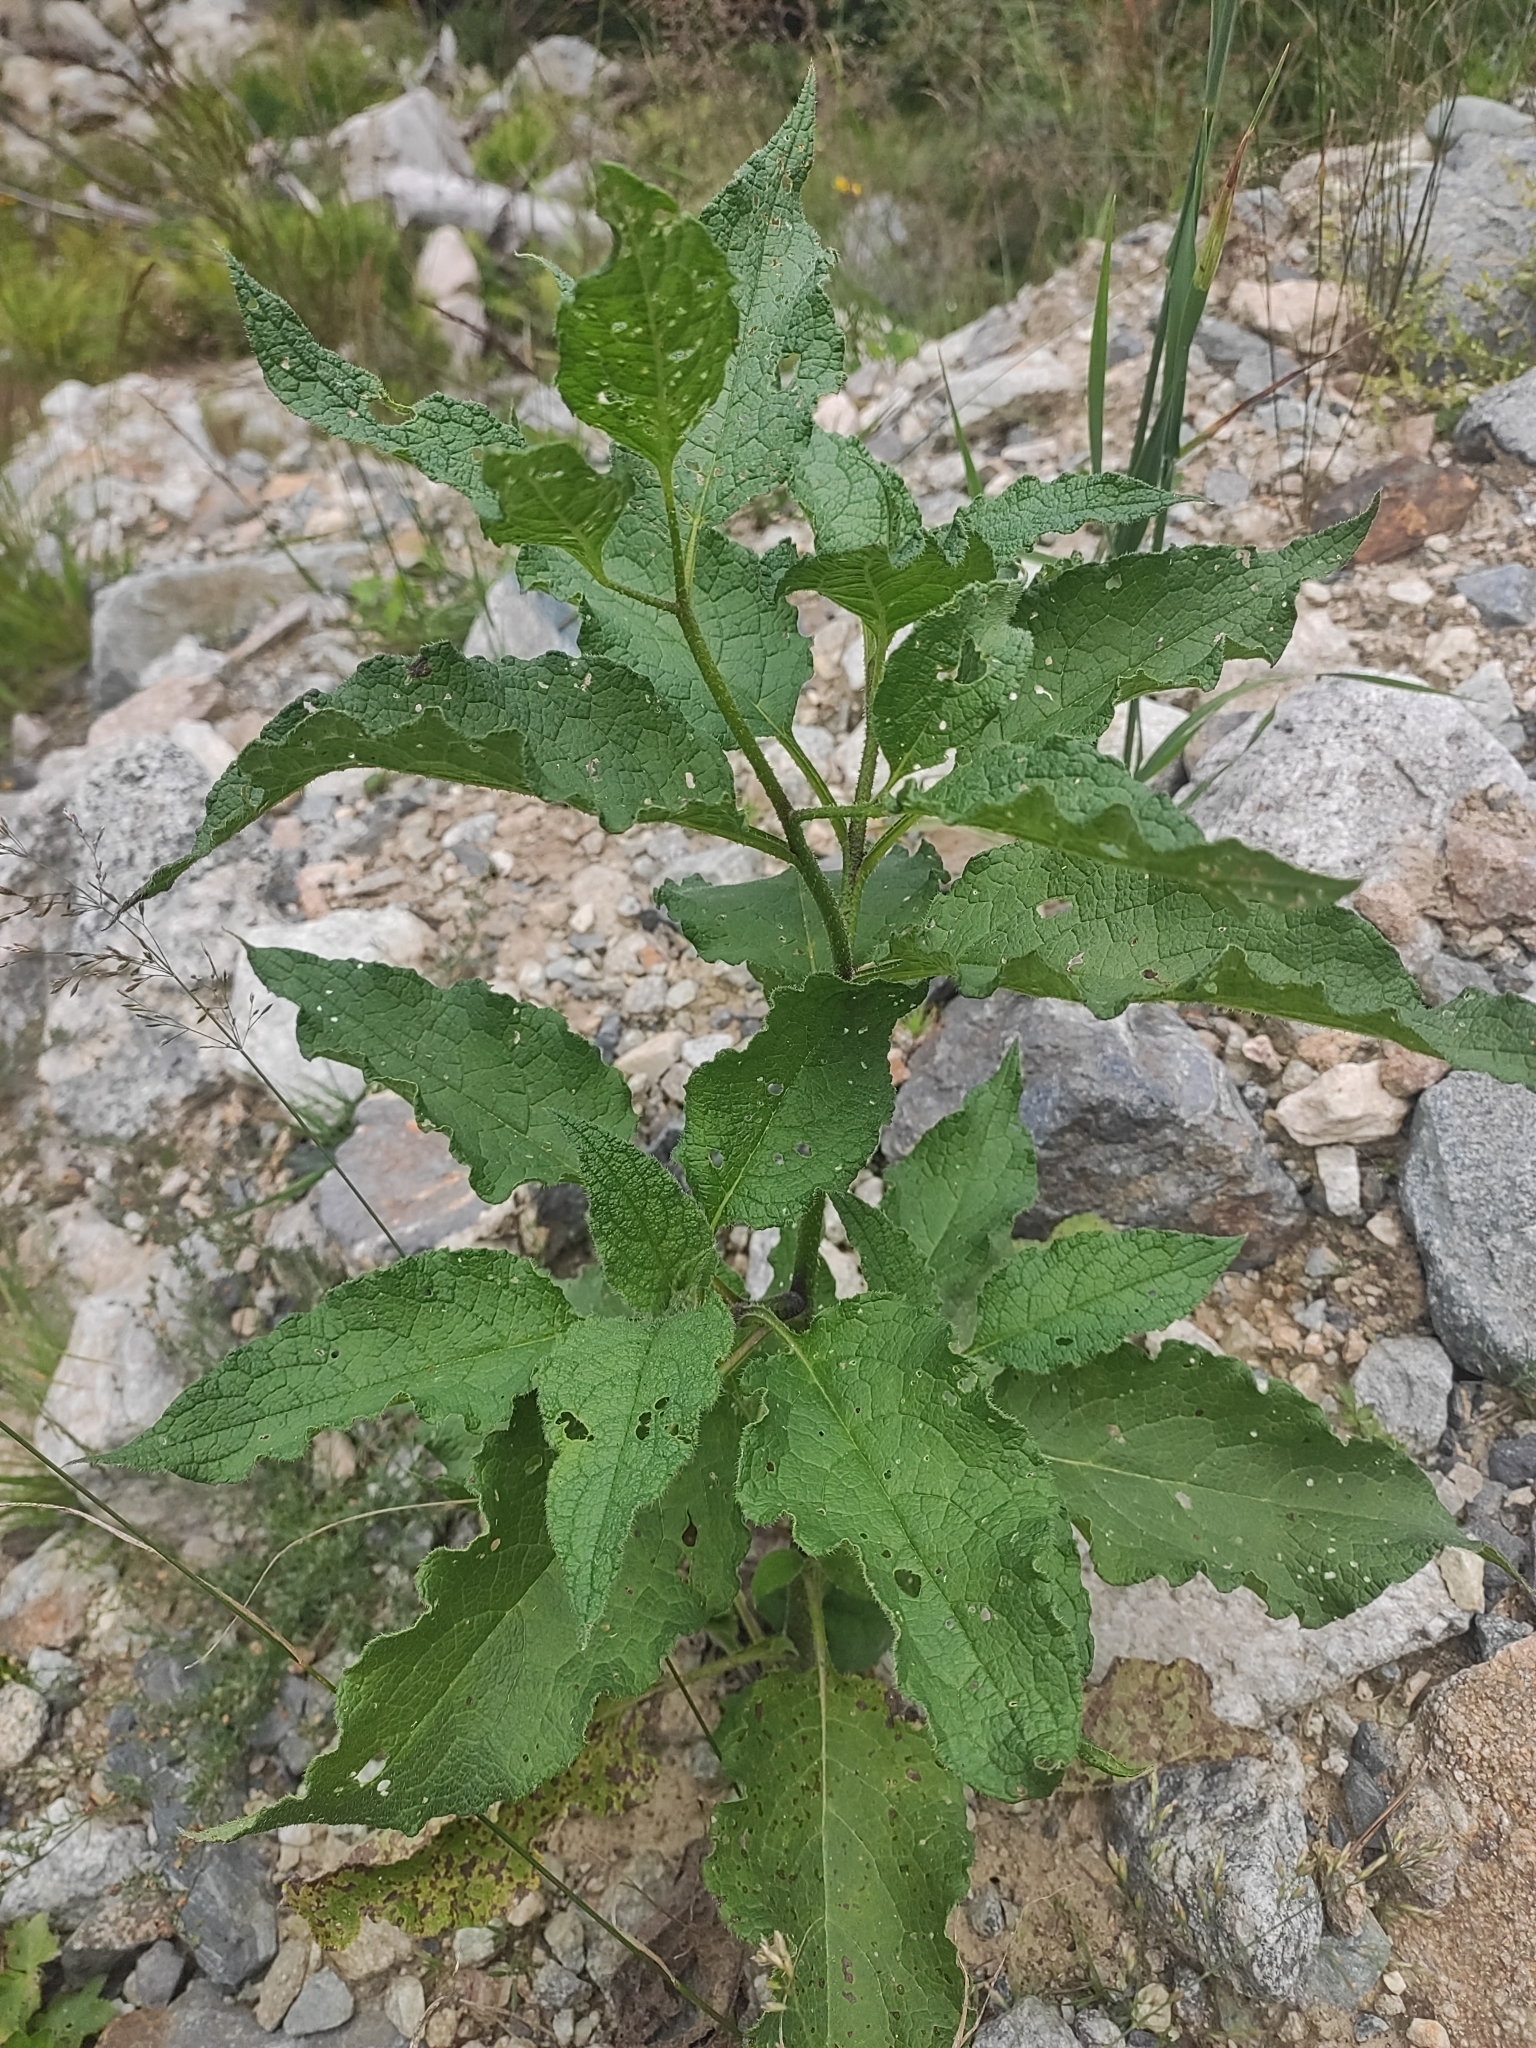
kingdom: Plantae
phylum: Tracheophyta
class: Magnoliopsida
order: Boraginales
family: Boraginaceae
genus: Symphytum
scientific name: Symphytum asperum
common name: Prickly comfrey
